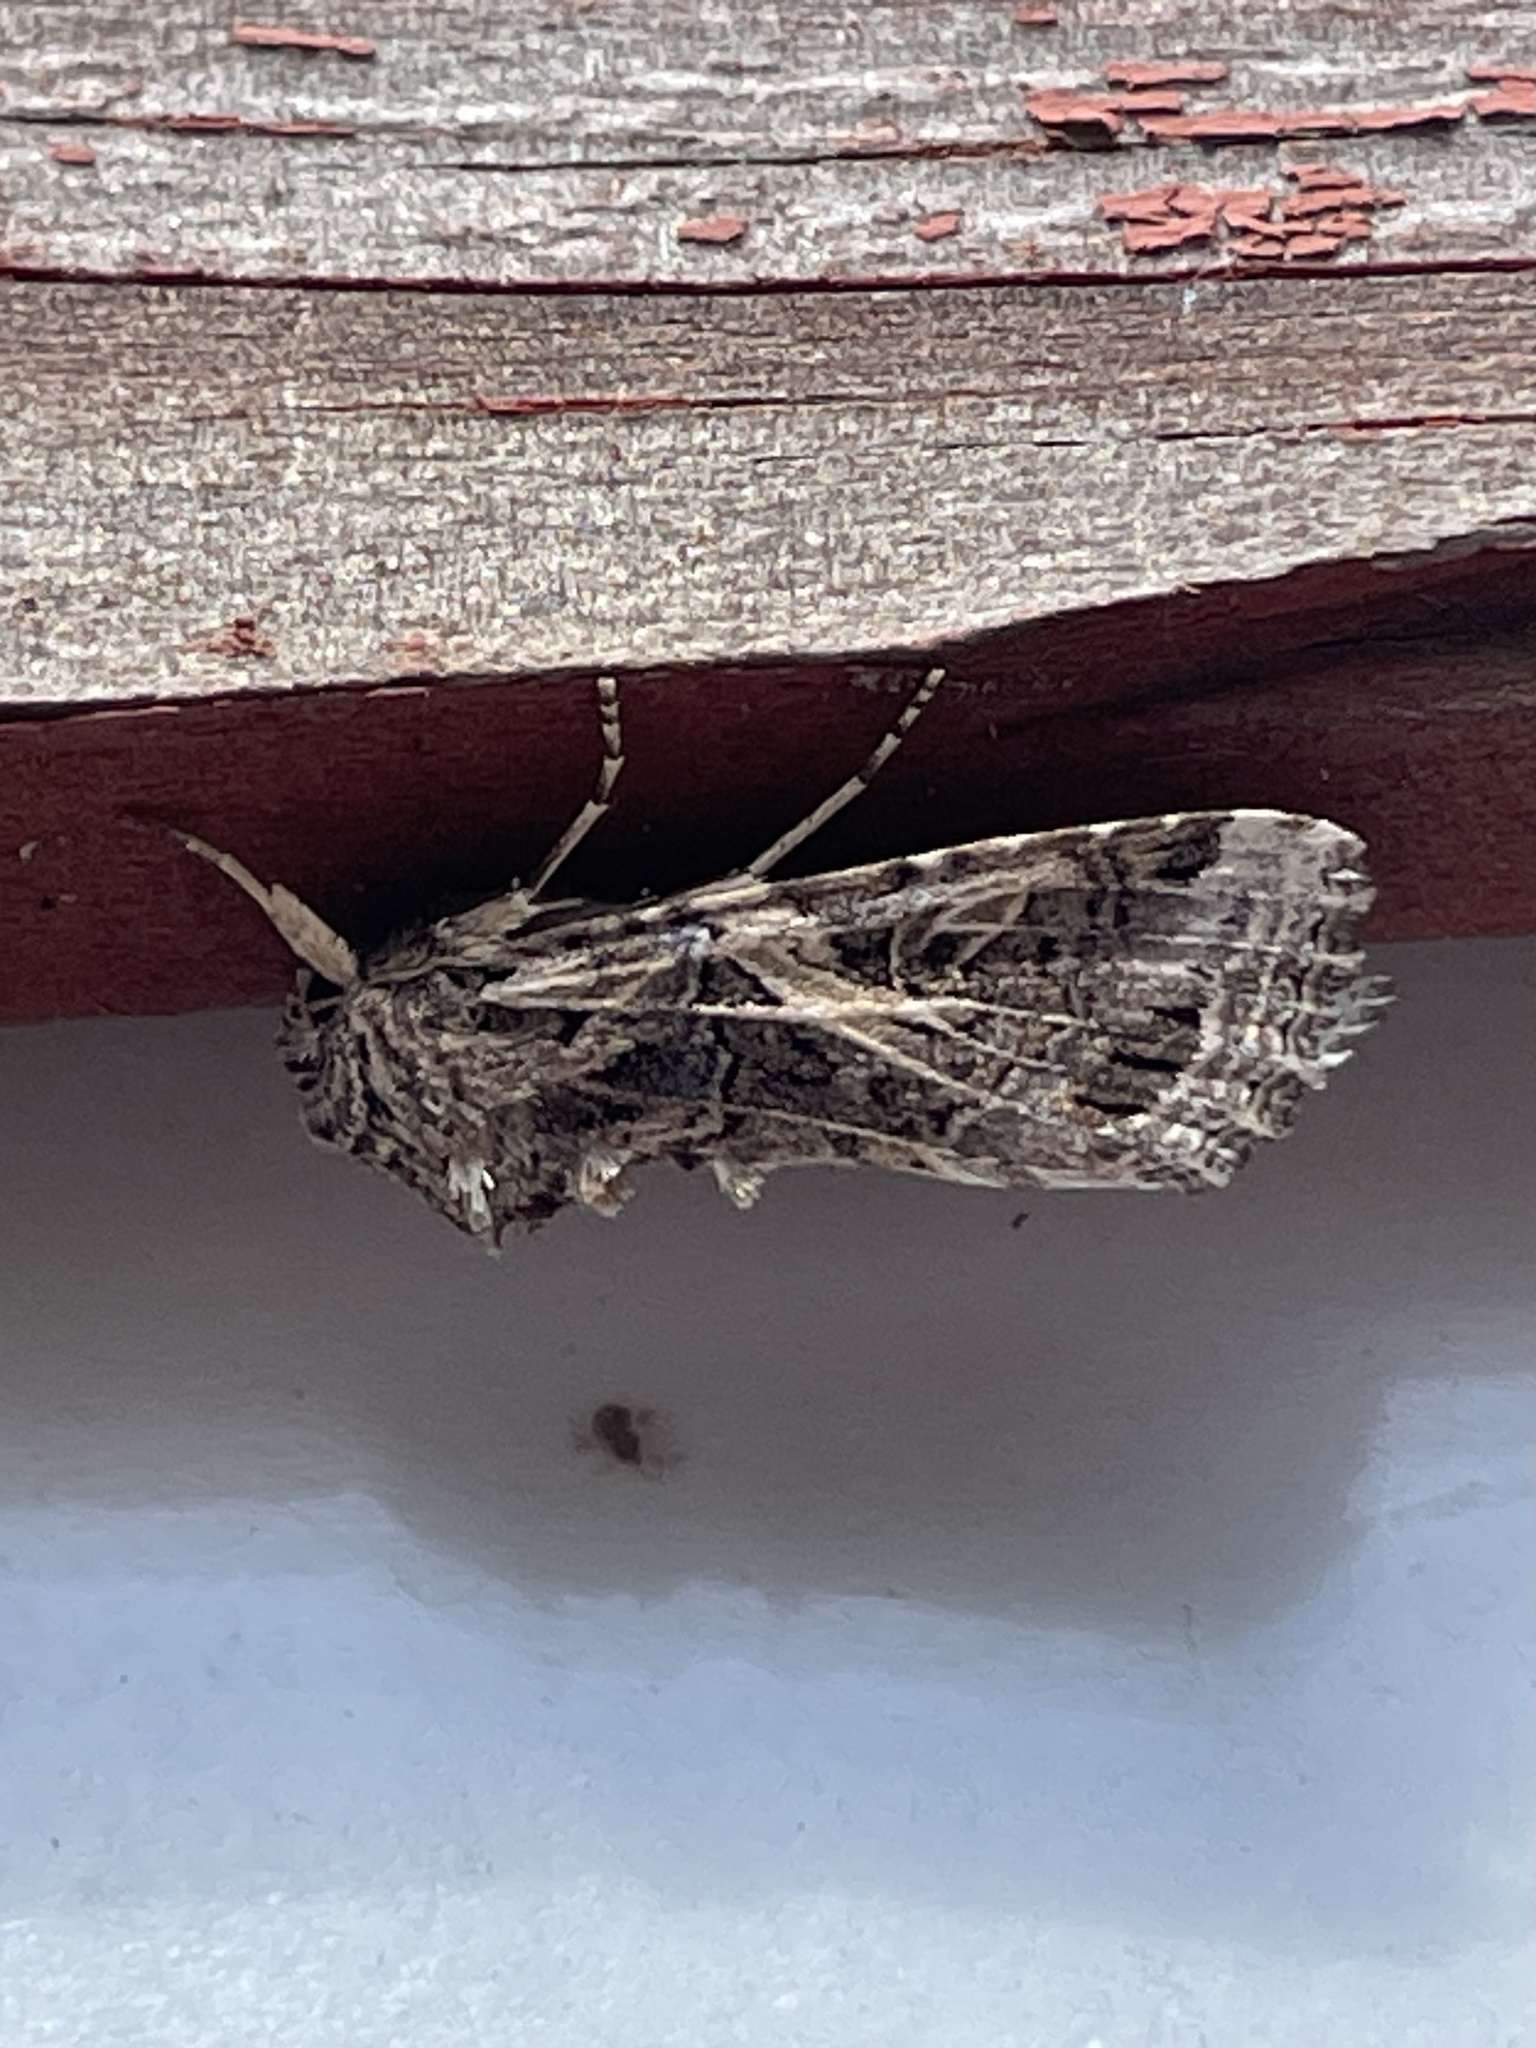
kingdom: Animalia
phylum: Arthropoda
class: Insecta
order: Lepidoptera
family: Noctuidae
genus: Spodoptera
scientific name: Spodoptera ornithogalli
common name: Yellow-striped armyworm
